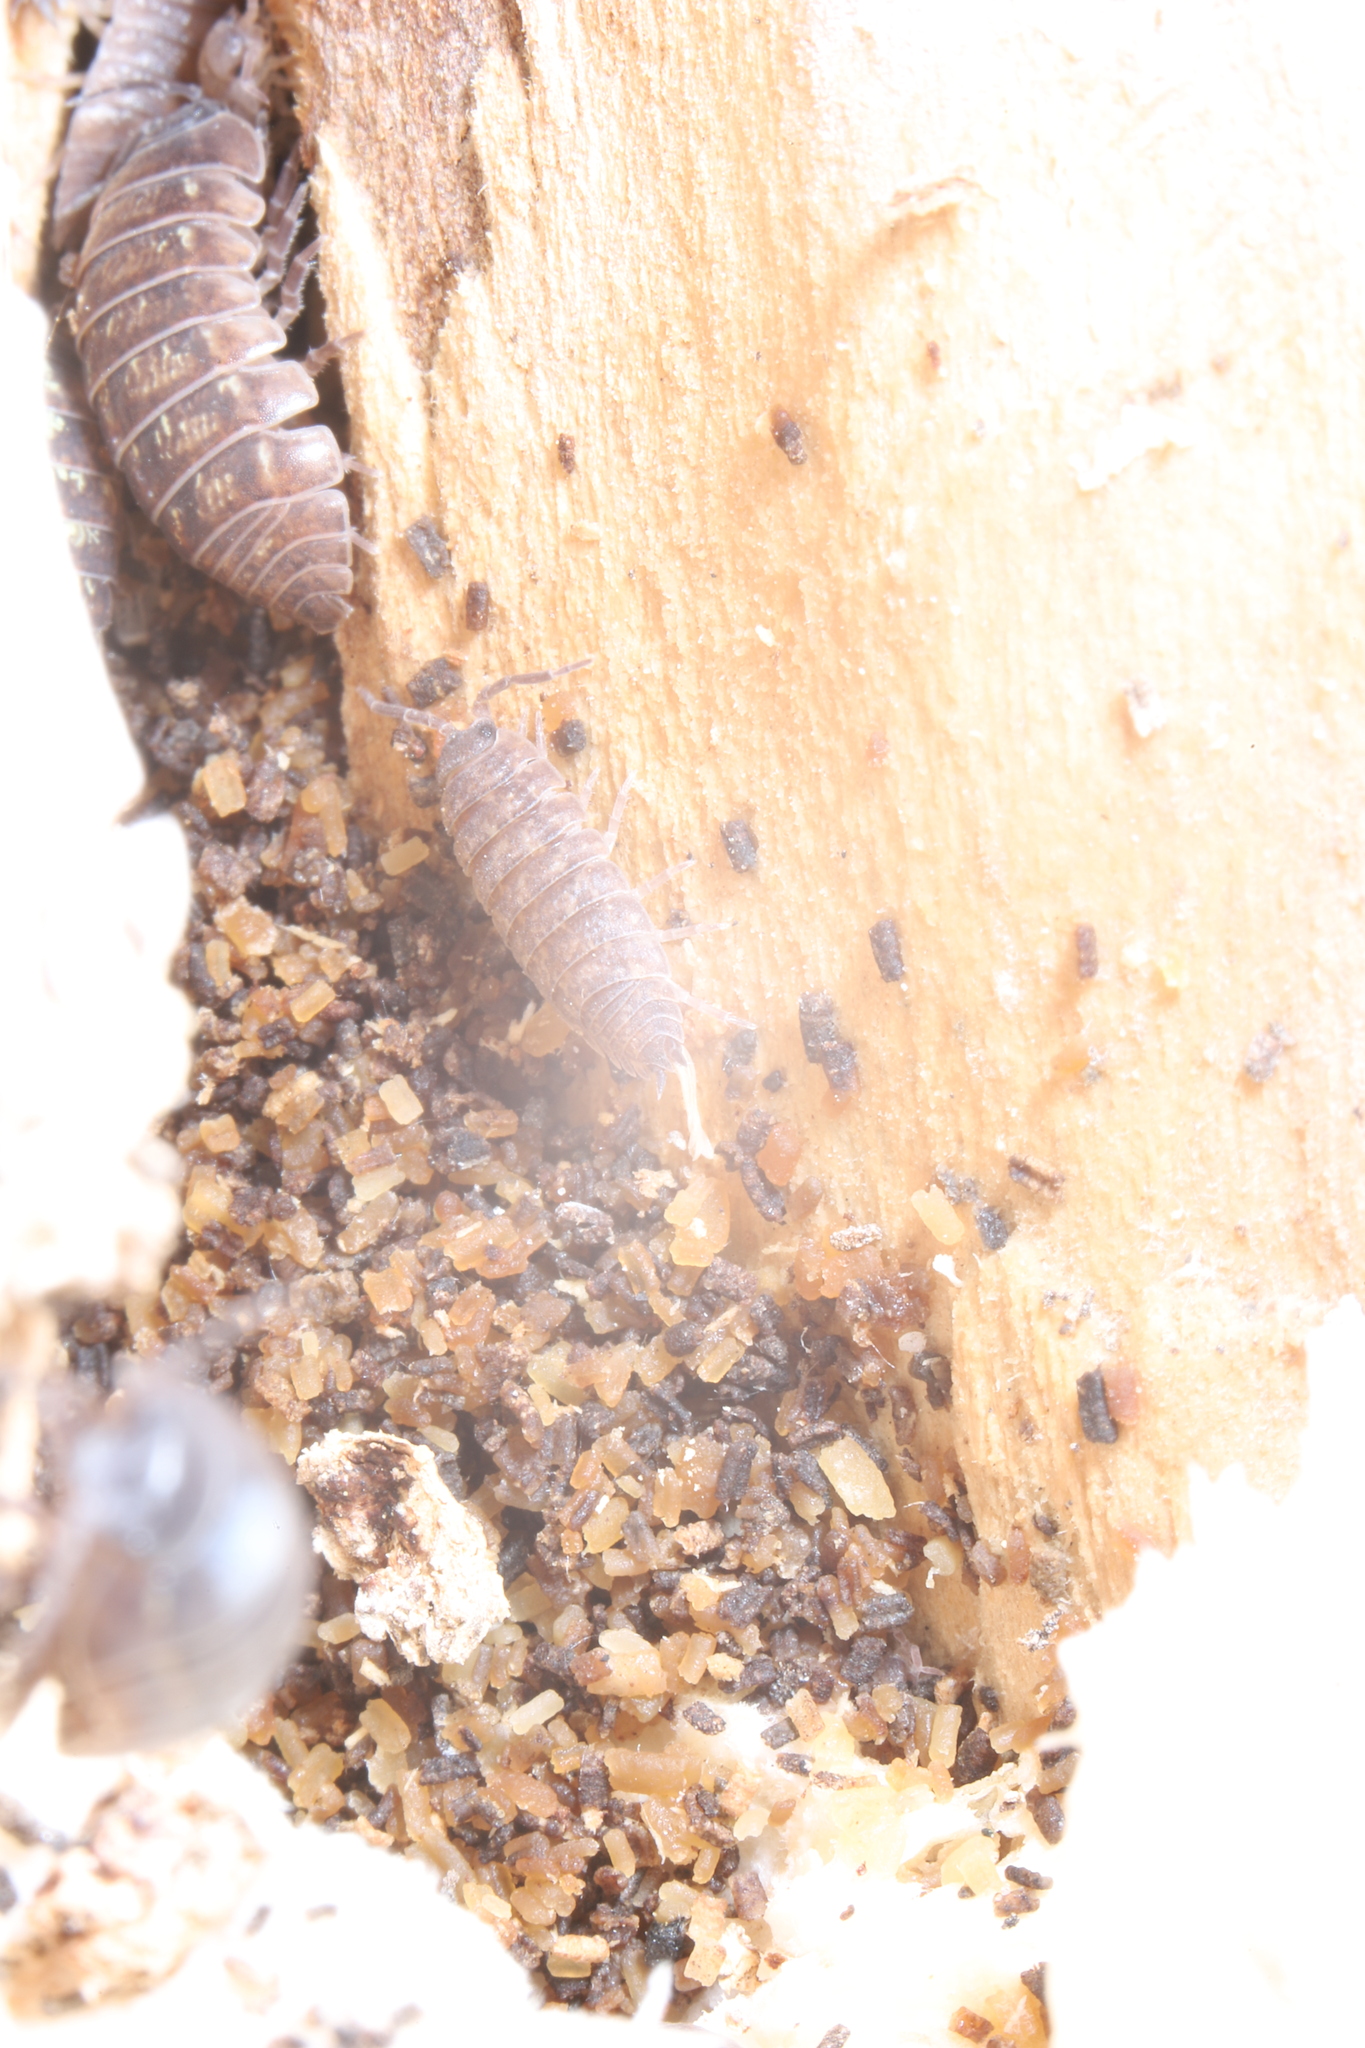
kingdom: Animalia
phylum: Arthropoda
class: Malacostraca
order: Isopoda
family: Porcellionidae
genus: Porcellio
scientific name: Porcellio scaber
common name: Common rough woodlouse
